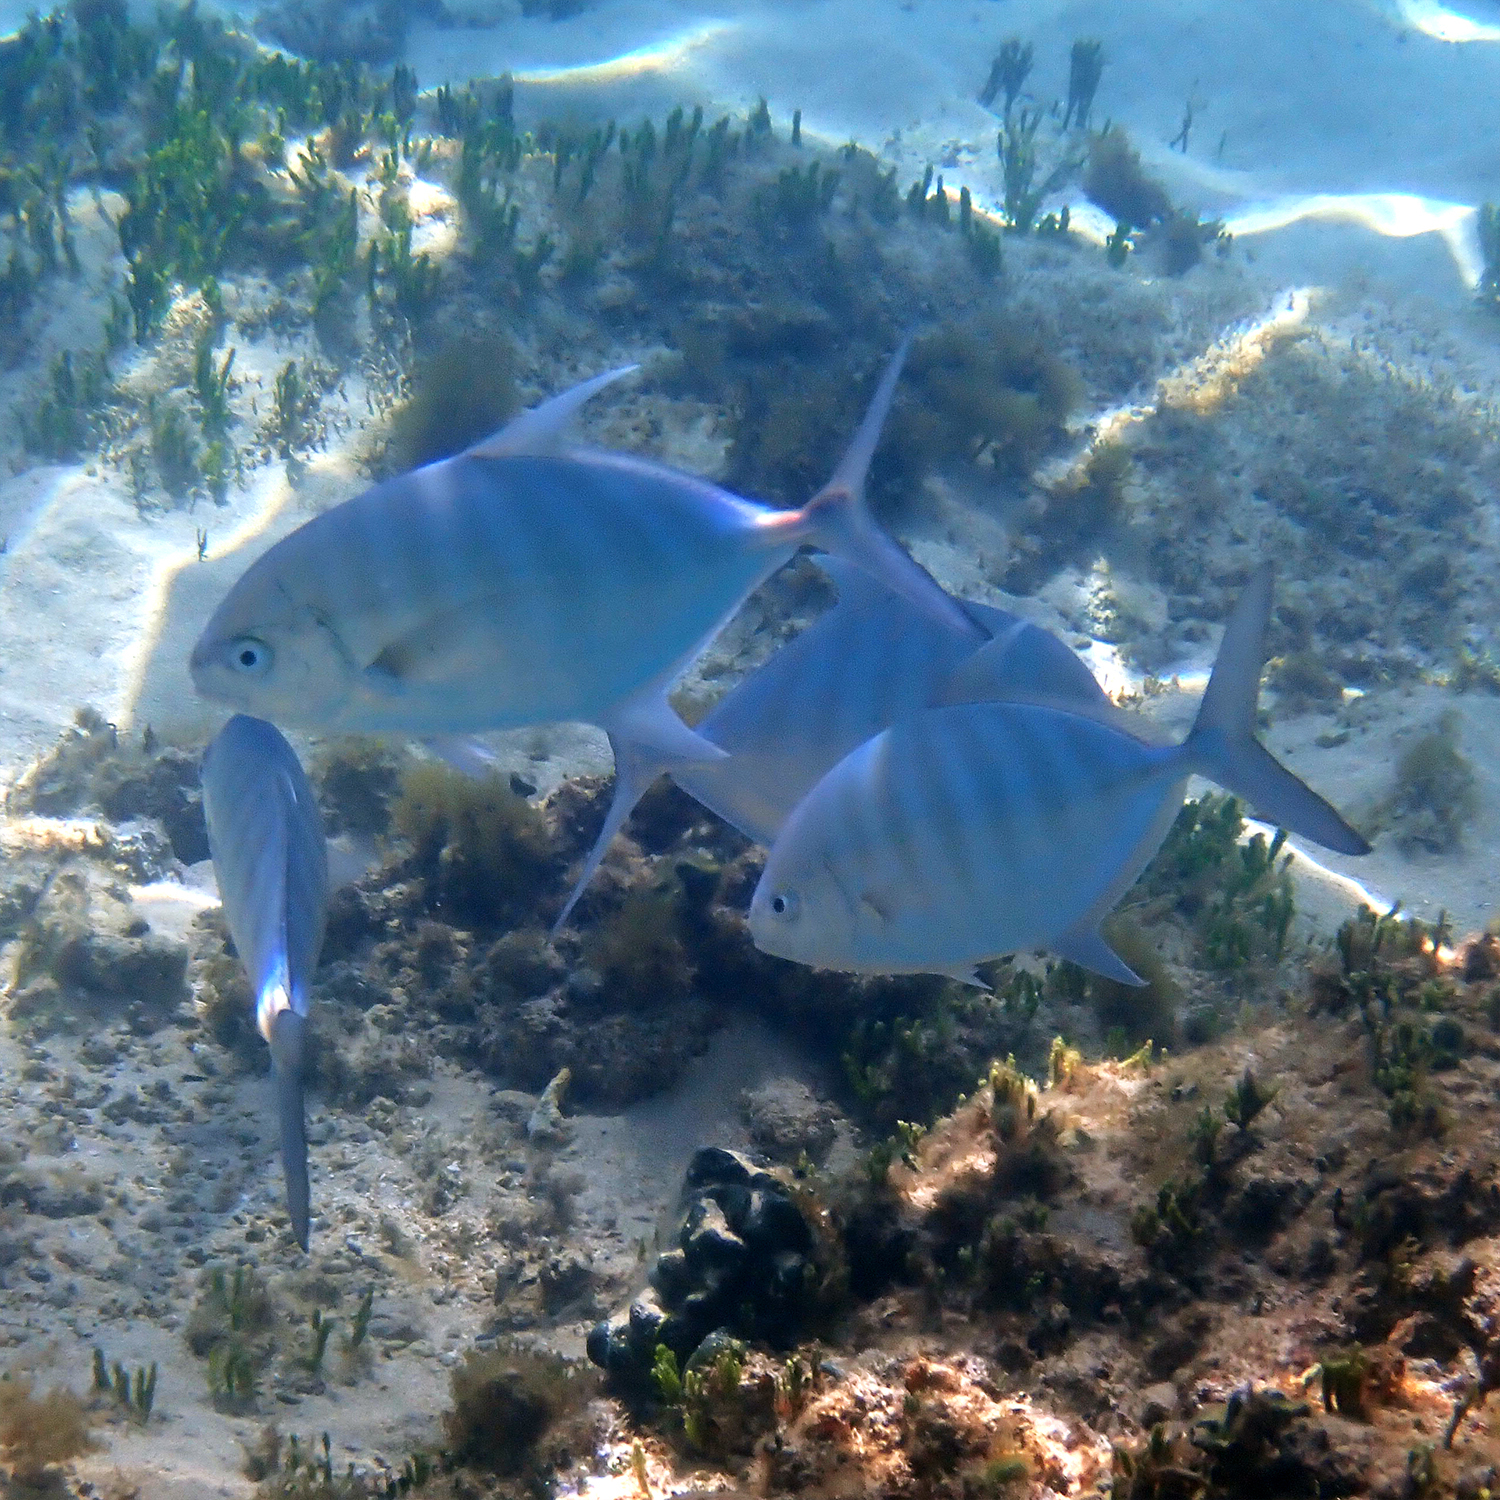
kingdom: Animalia
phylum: Chordata
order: Perciformes
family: Carangidae
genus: Carangoides
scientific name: Carangoides Ferdauia ferdau
